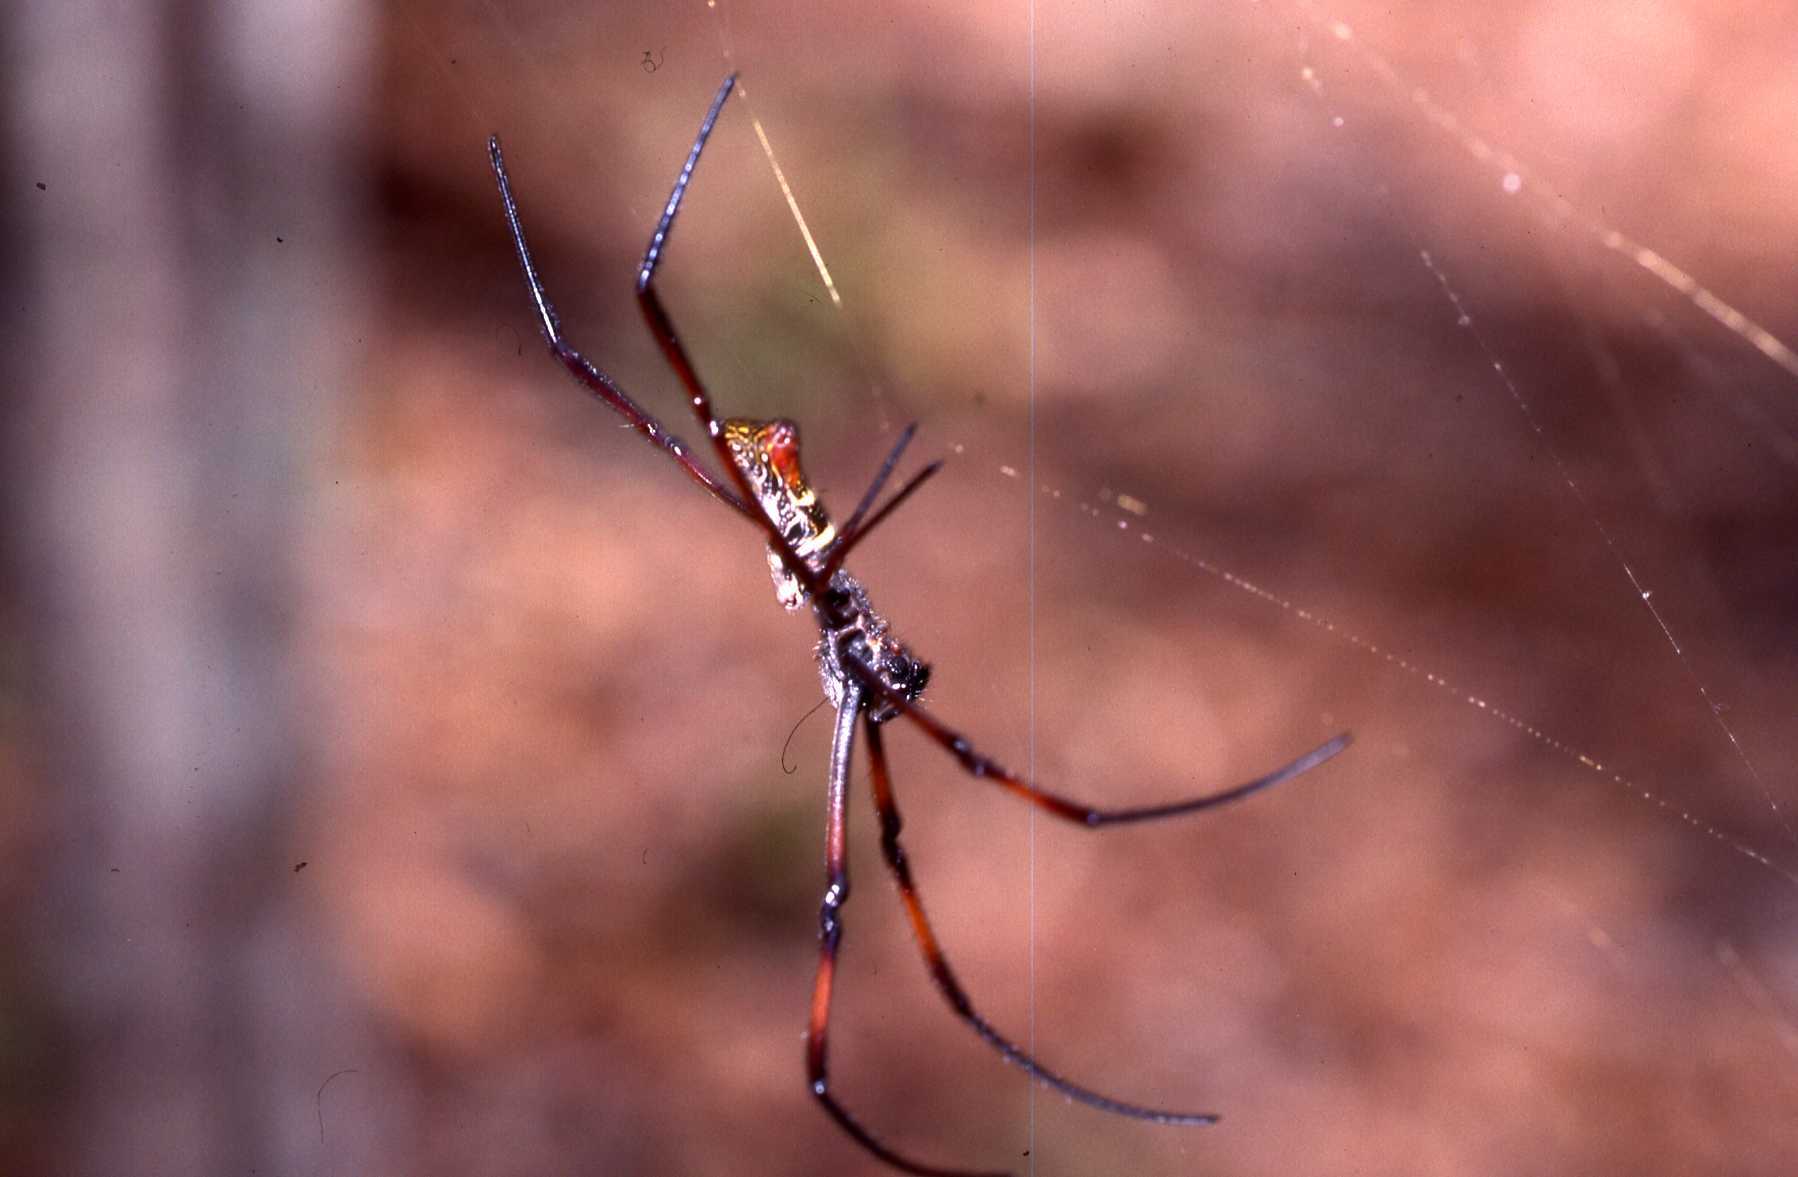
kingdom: Animalia
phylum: Arthropoda
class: Arachnida
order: Araneae
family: Araneidae
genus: Trichonephila
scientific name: Trichonephila inaurata
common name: Red-legged golden orb weaver
